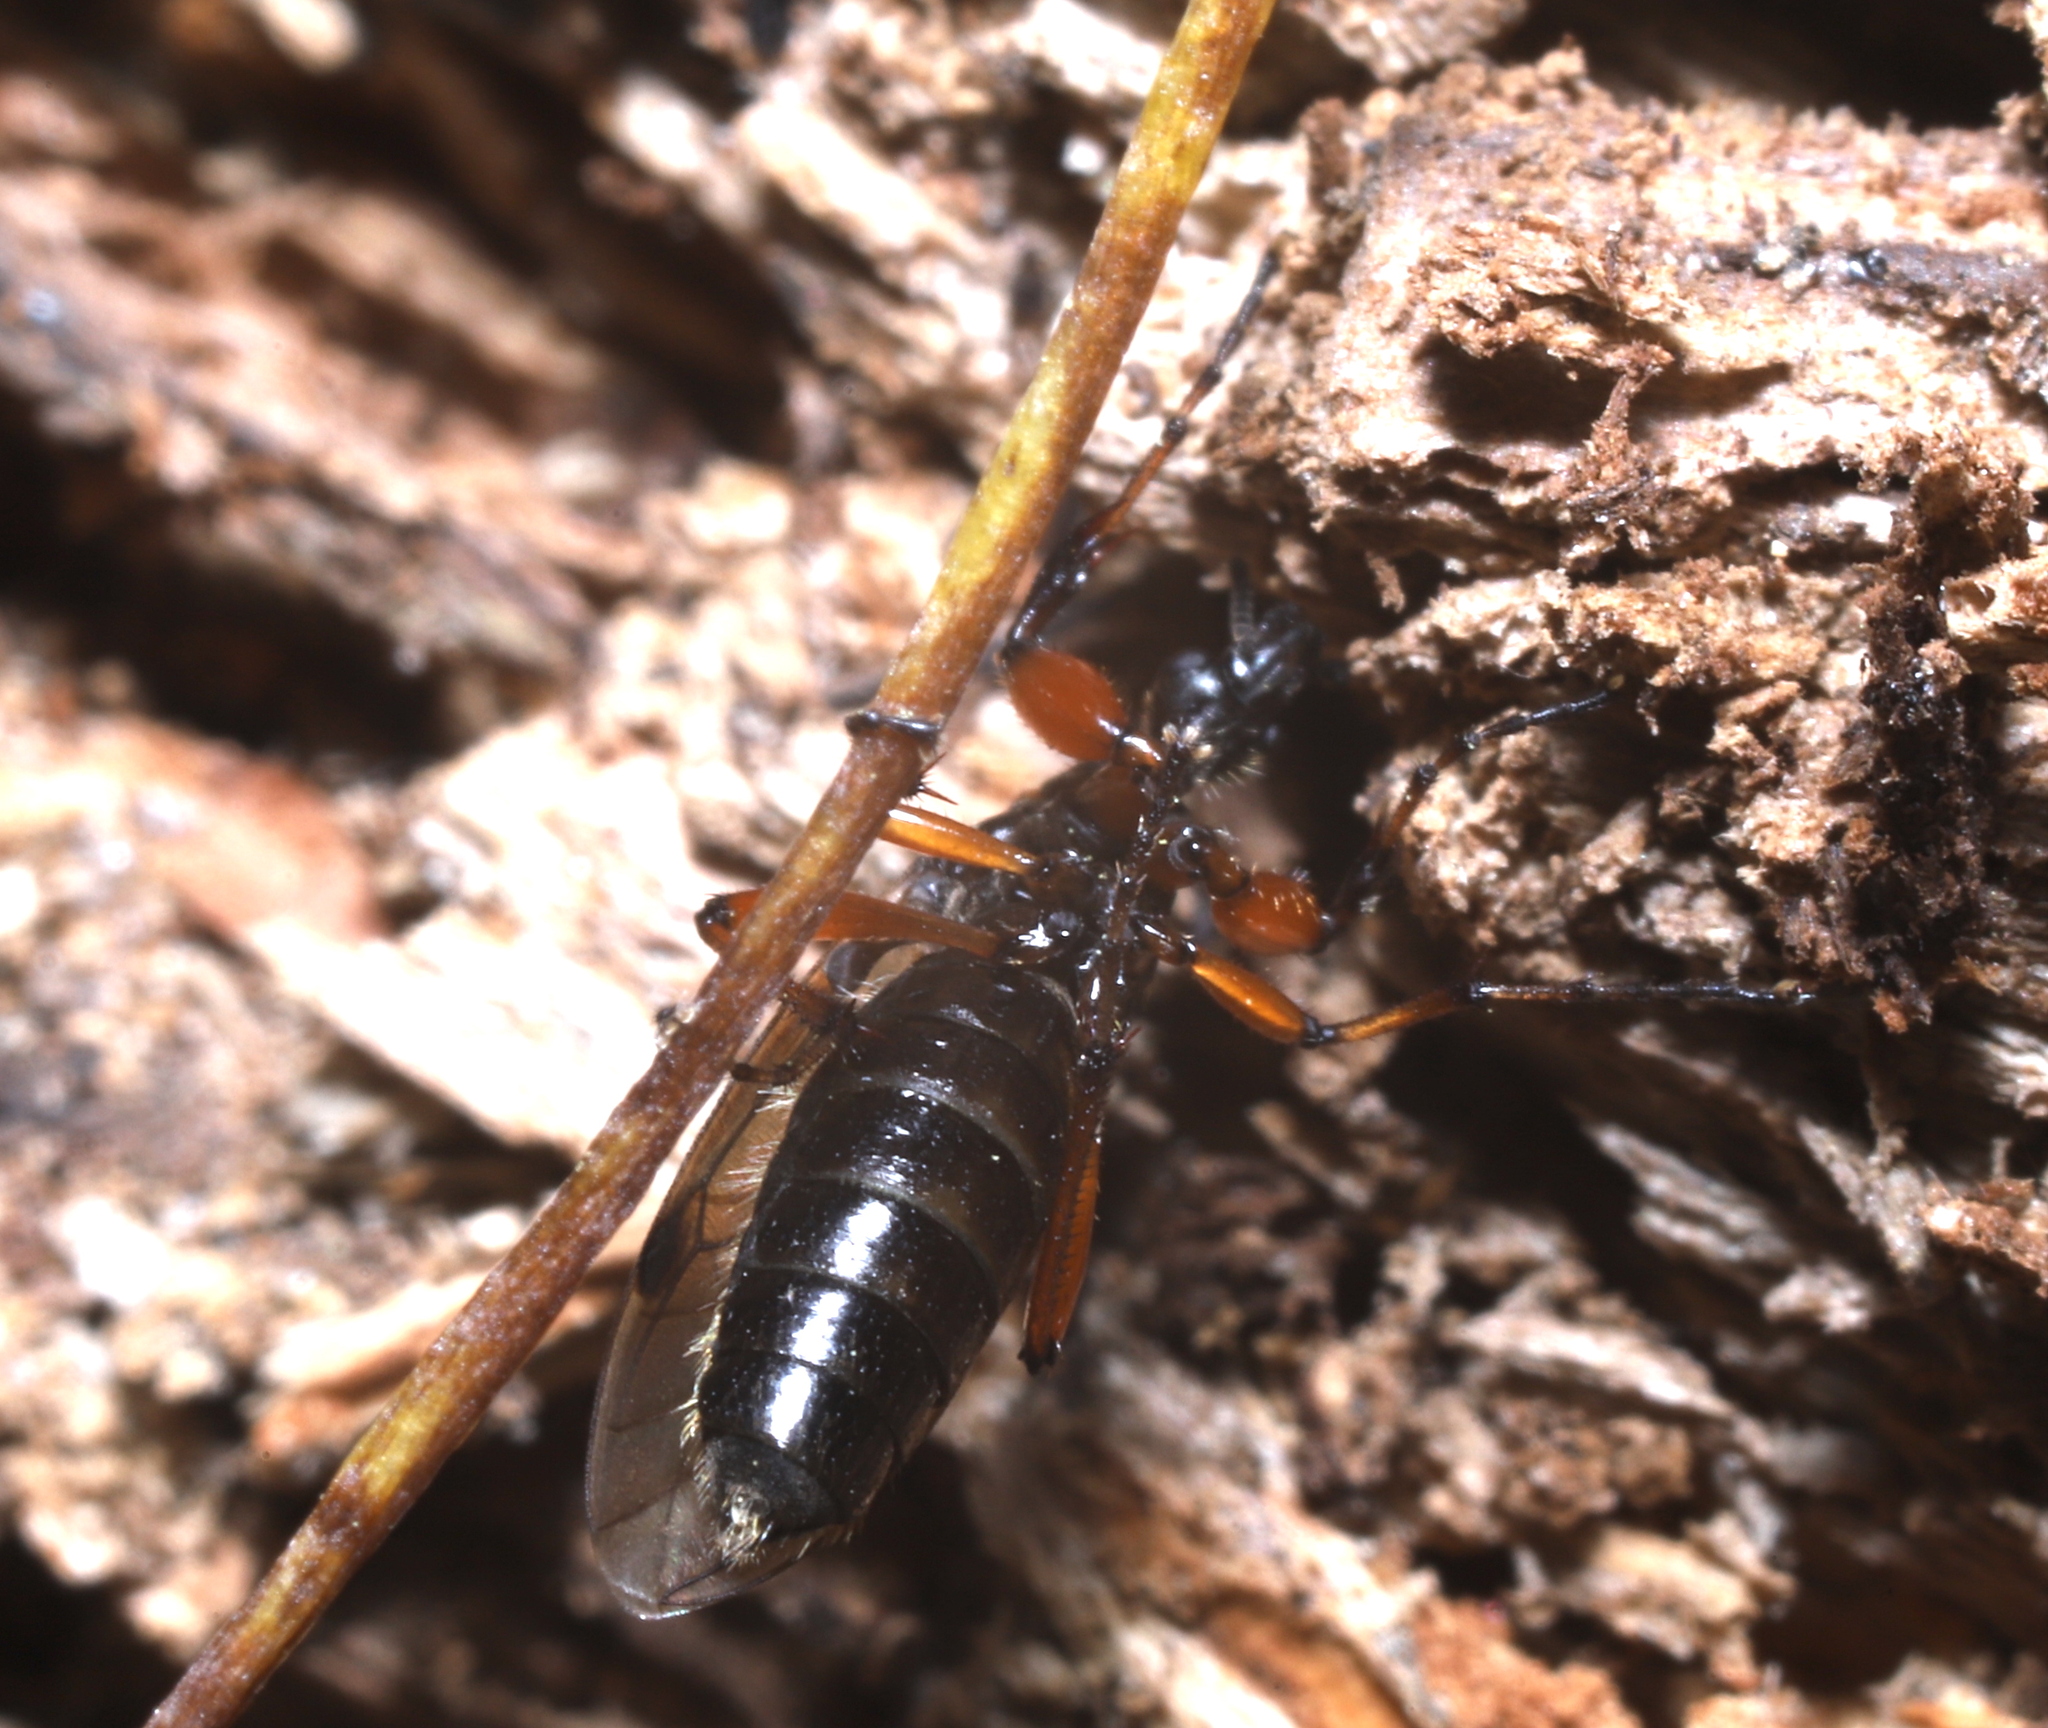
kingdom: Animalia
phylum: Arthropoda
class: Insecta
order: Diptera
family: Bibionidae
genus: Bibio
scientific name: Bibio articulatus
